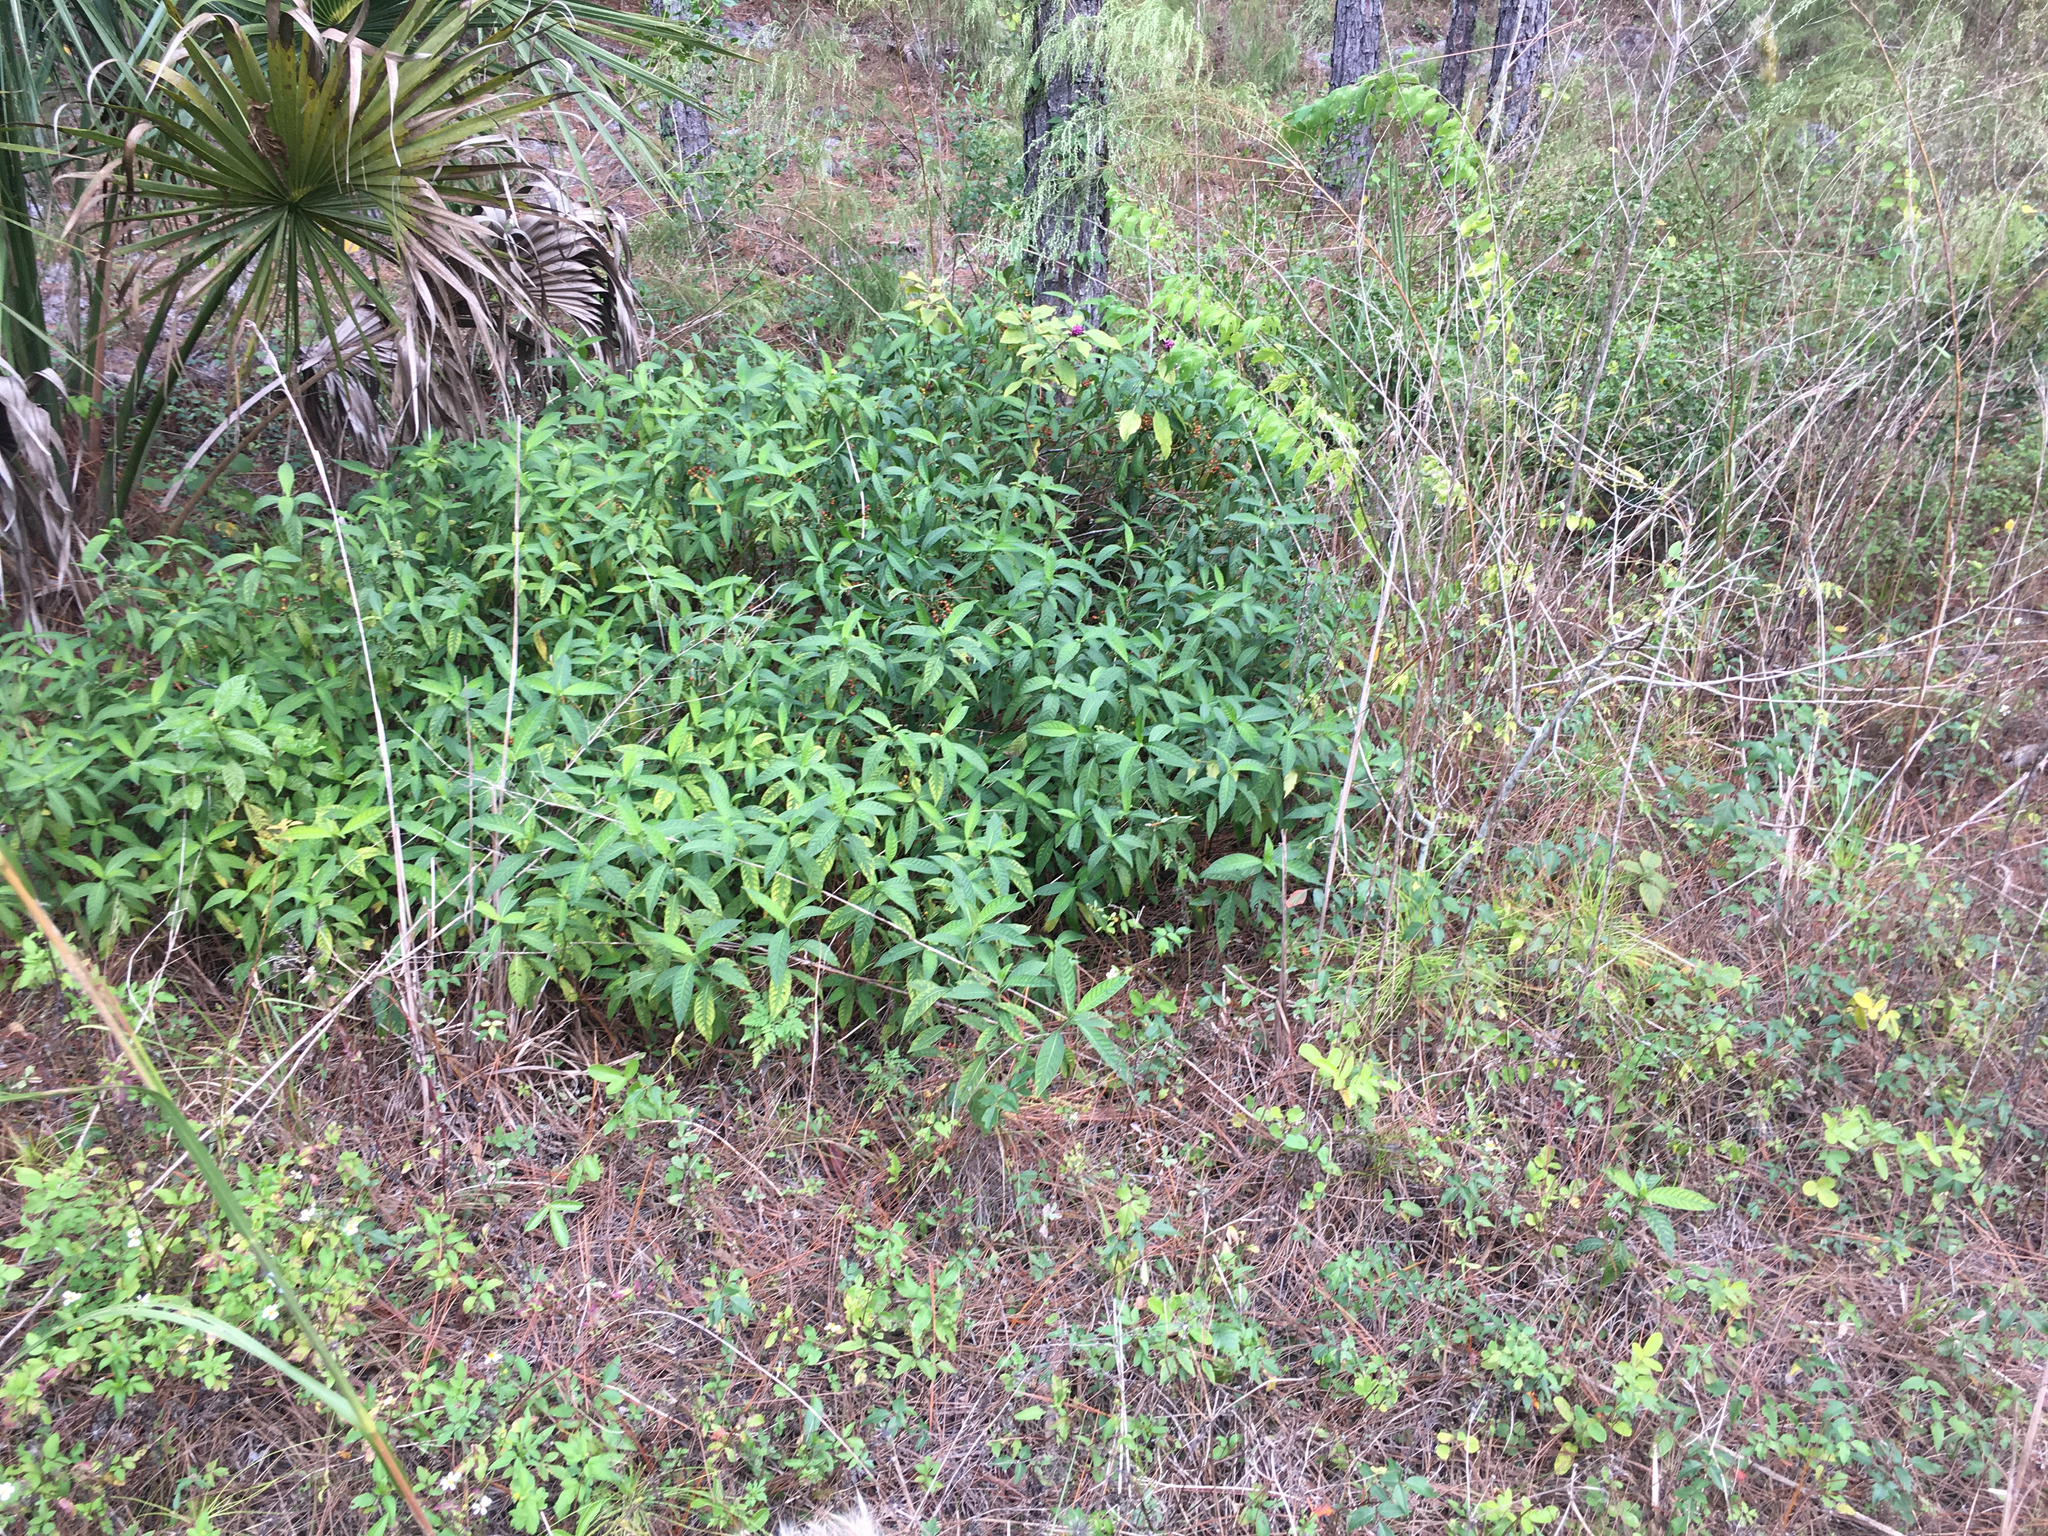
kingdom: Plantae
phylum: Tracheophyta
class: Magnoliopsida
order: Gentianales
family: Rubiaceae
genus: Psychotria
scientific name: Psychotria tenuifolia
